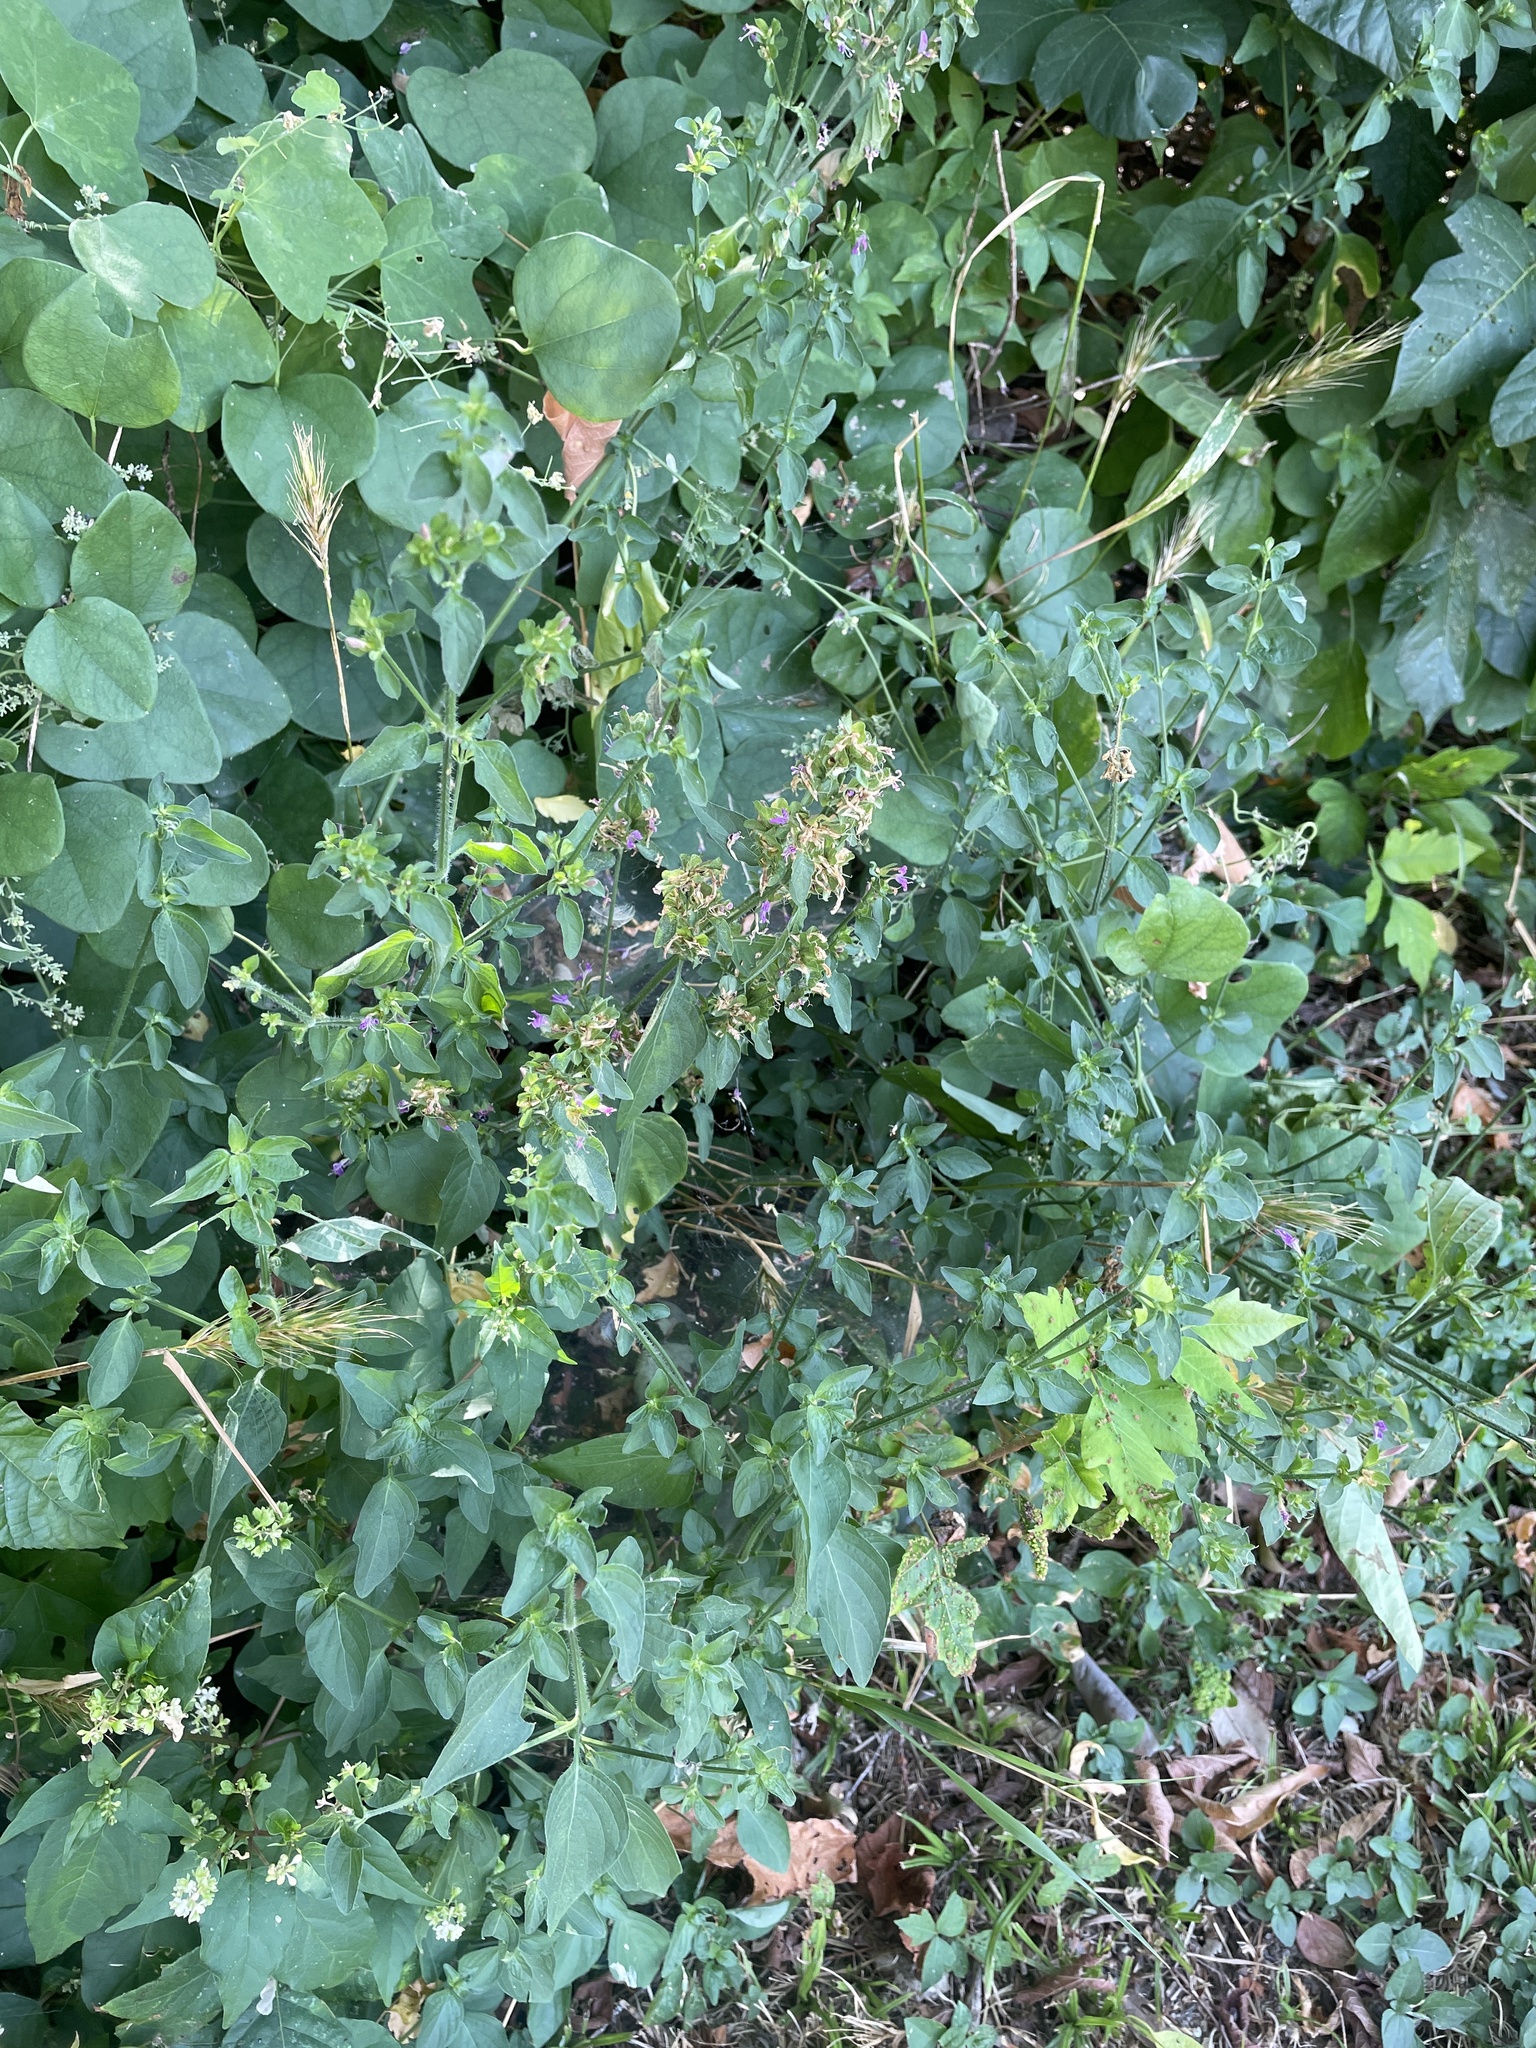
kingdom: Plantae
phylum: Tracheophyta
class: Magnoliopsida
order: Lamiales
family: Acanthaceae
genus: Dicliptera
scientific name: Dicliptera brachiata
